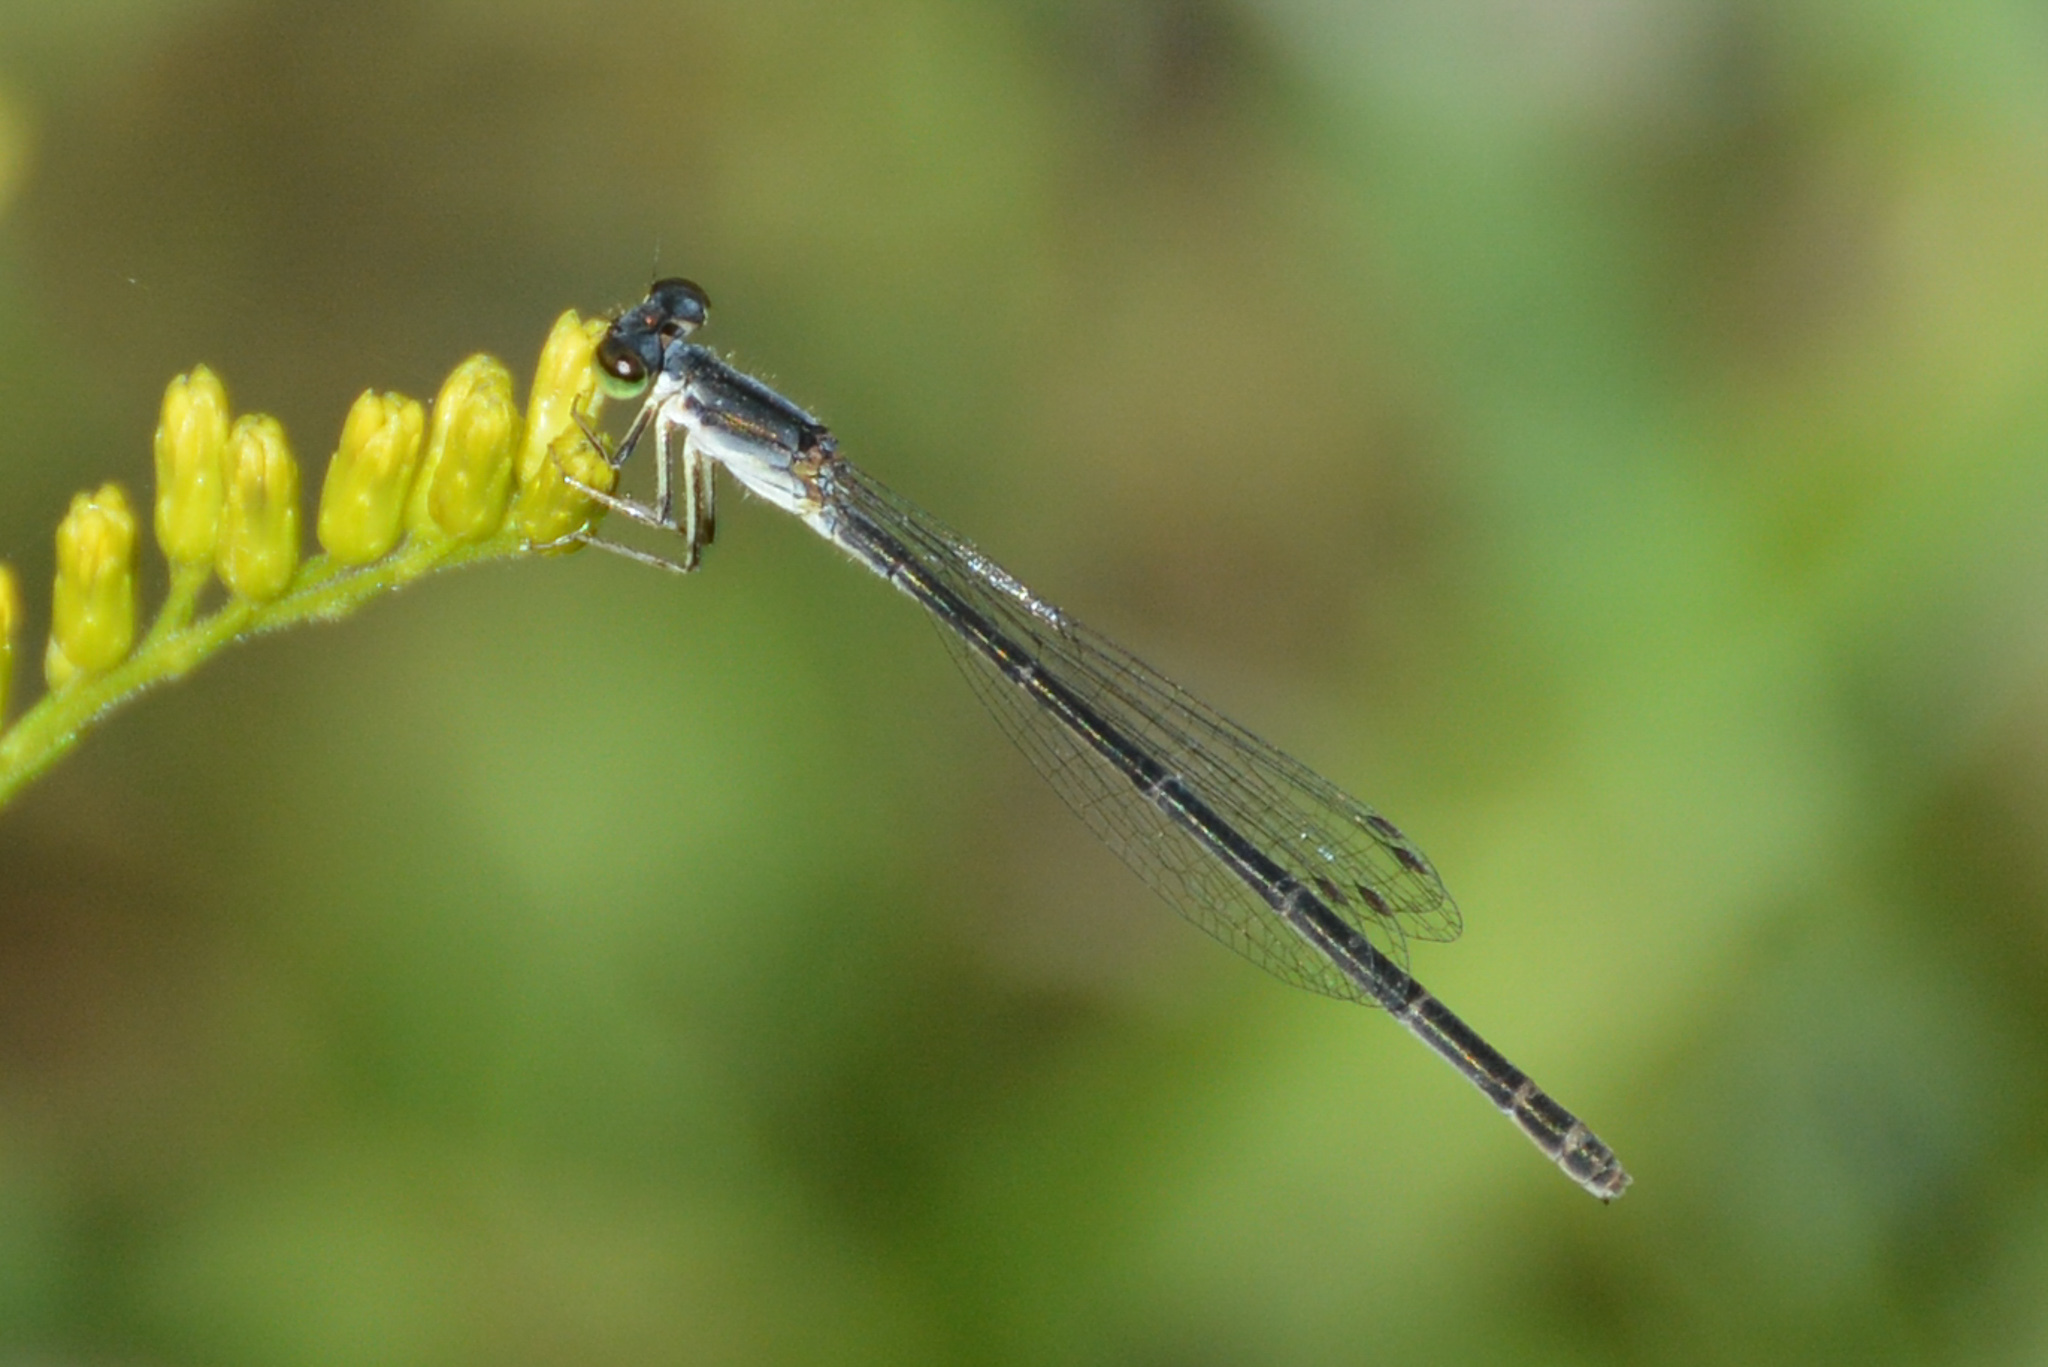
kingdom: Animalia
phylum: Arthropoda
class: Insecta
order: Odonata
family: Coenagrionidae
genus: Ischnura
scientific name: Ischnura posita
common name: Fragile forktail
